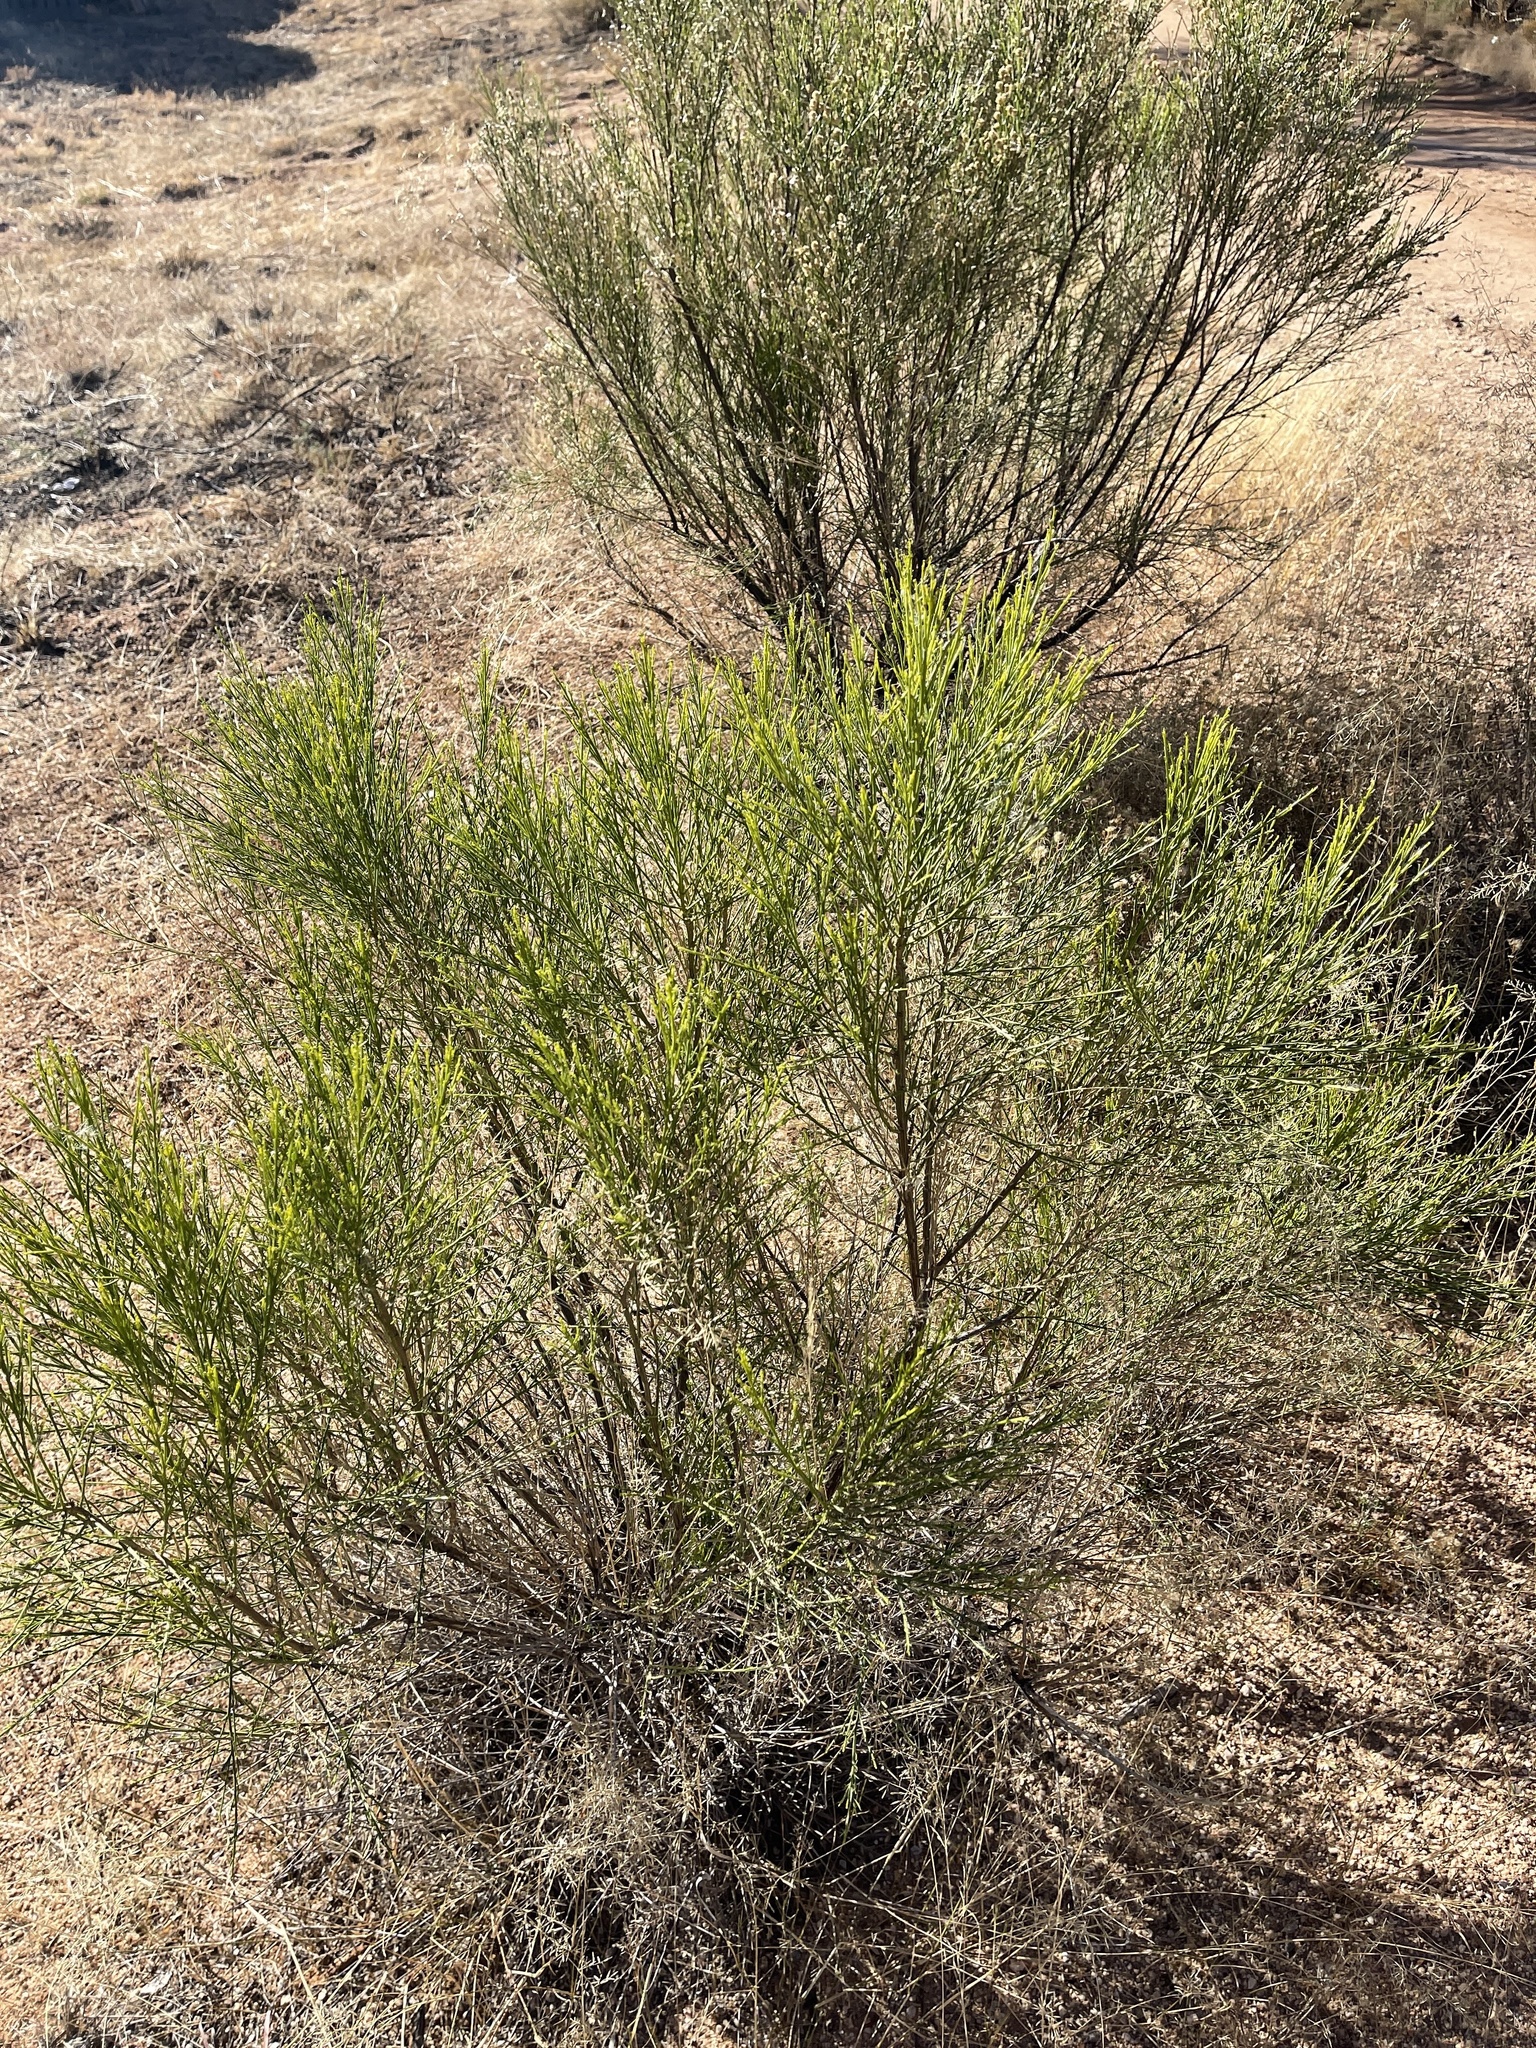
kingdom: Plantae
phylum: Tracheophyta
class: Magnoliopsida
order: Asterales
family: Asteraceae
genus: Baccharis
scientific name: Baccharis sarothroides
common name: Desert-broom
